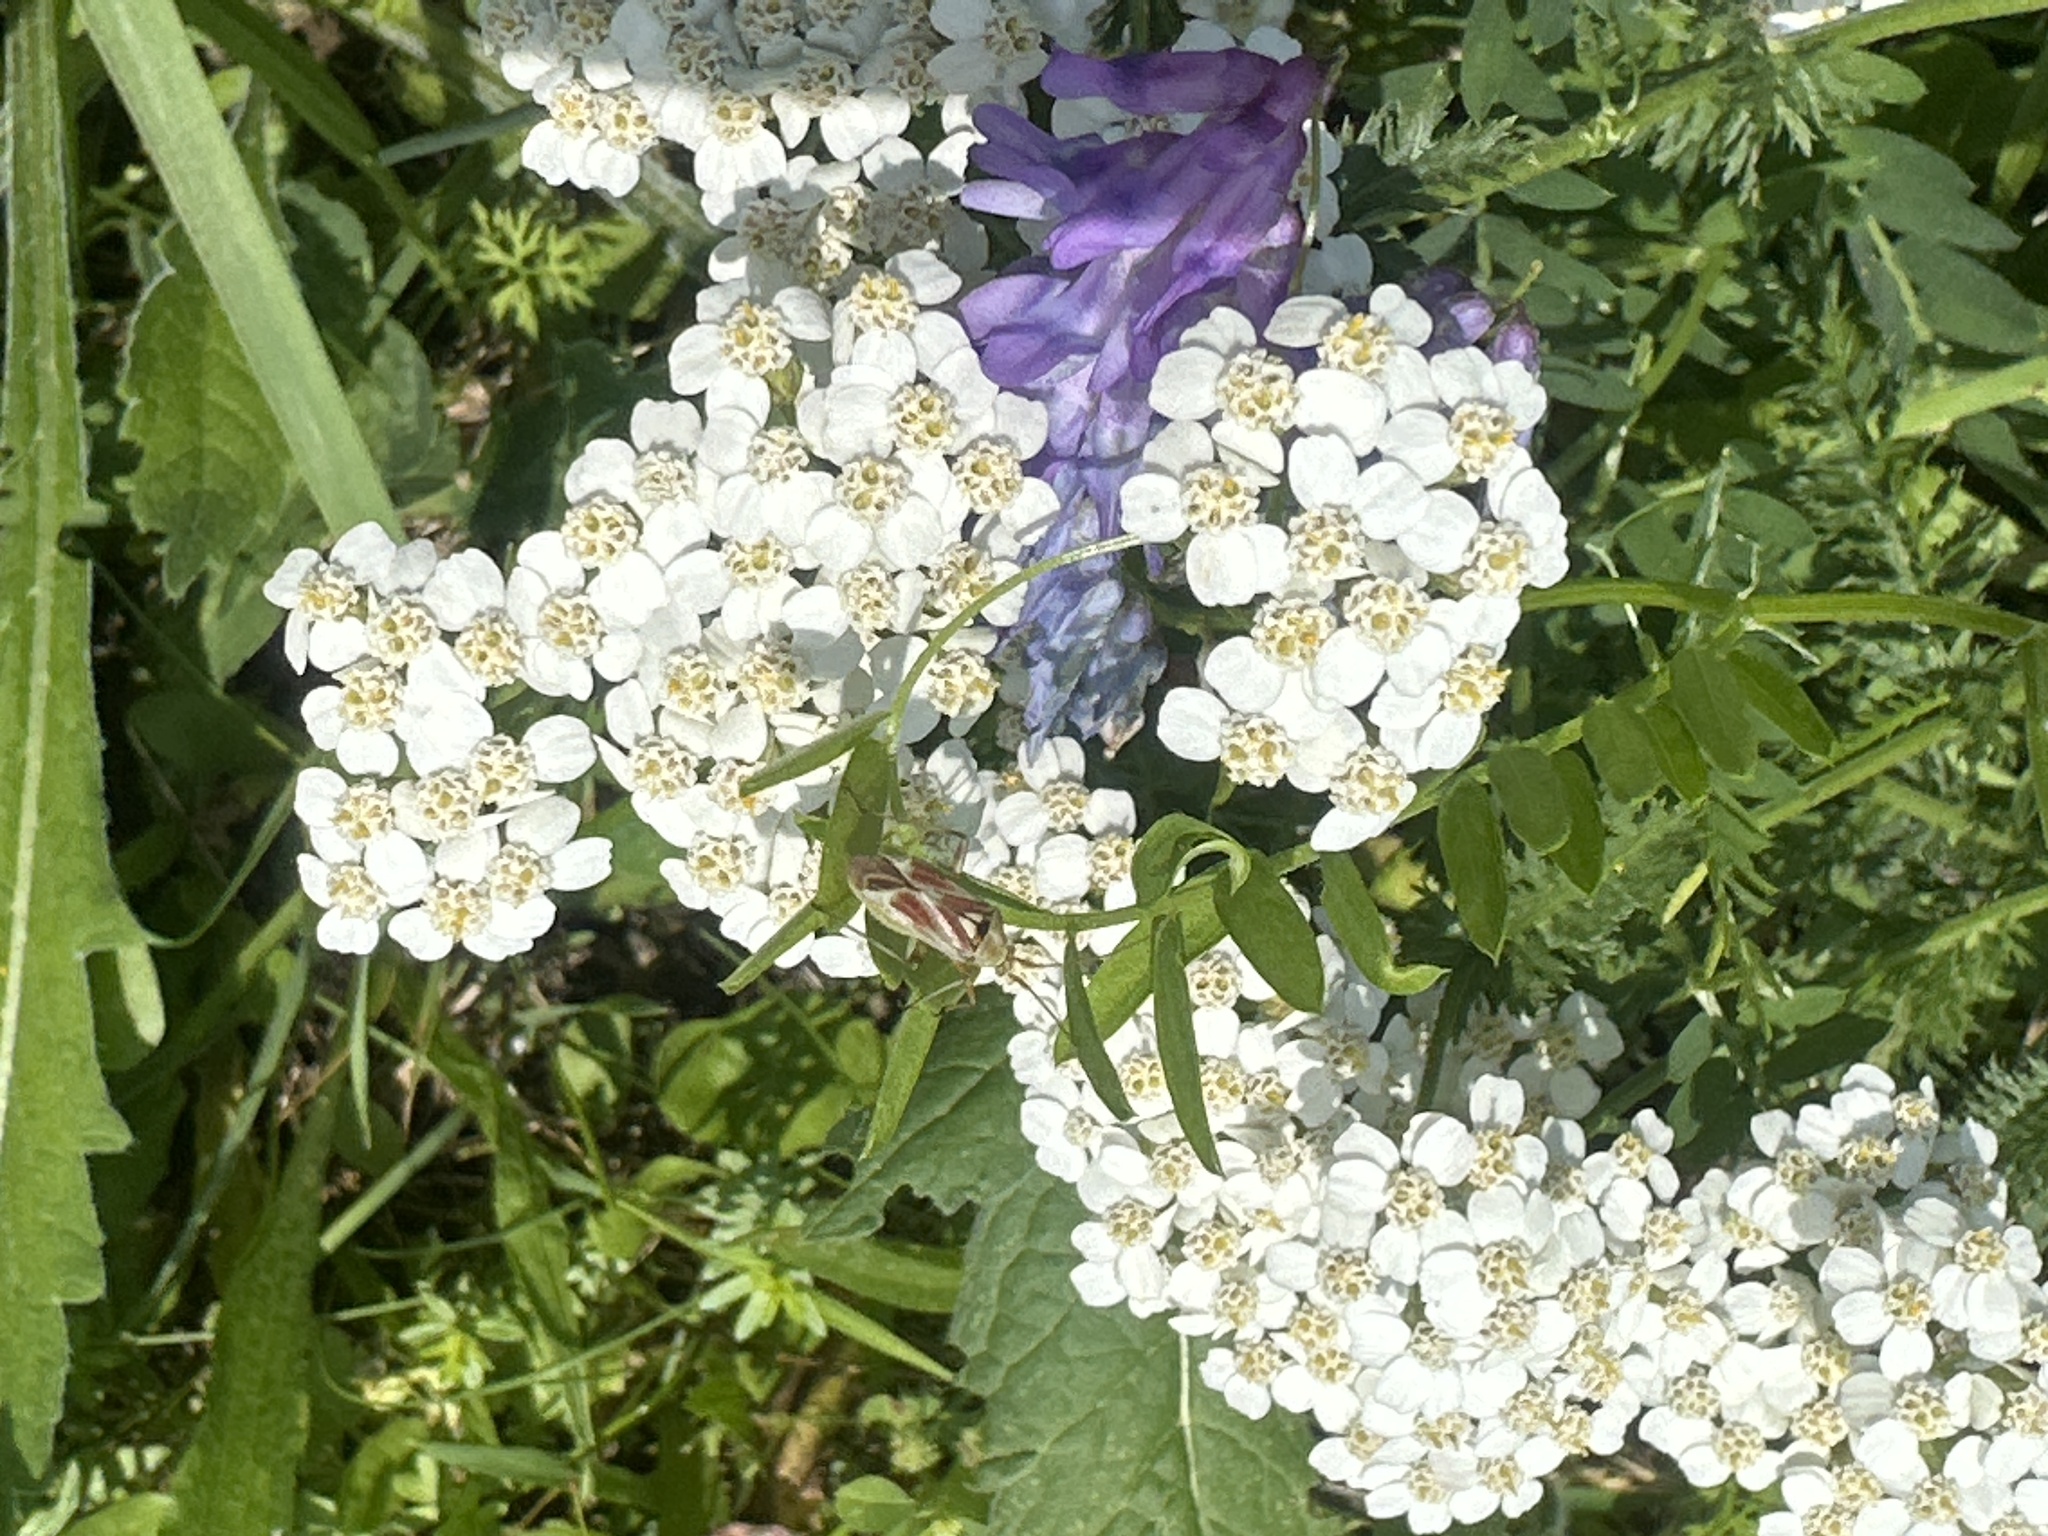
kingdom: Animalia
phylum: Arthropoda
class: Insecta
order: Hemiptera
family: Miridae
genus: Calocoris
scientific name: Calocoris roseomaculatus
